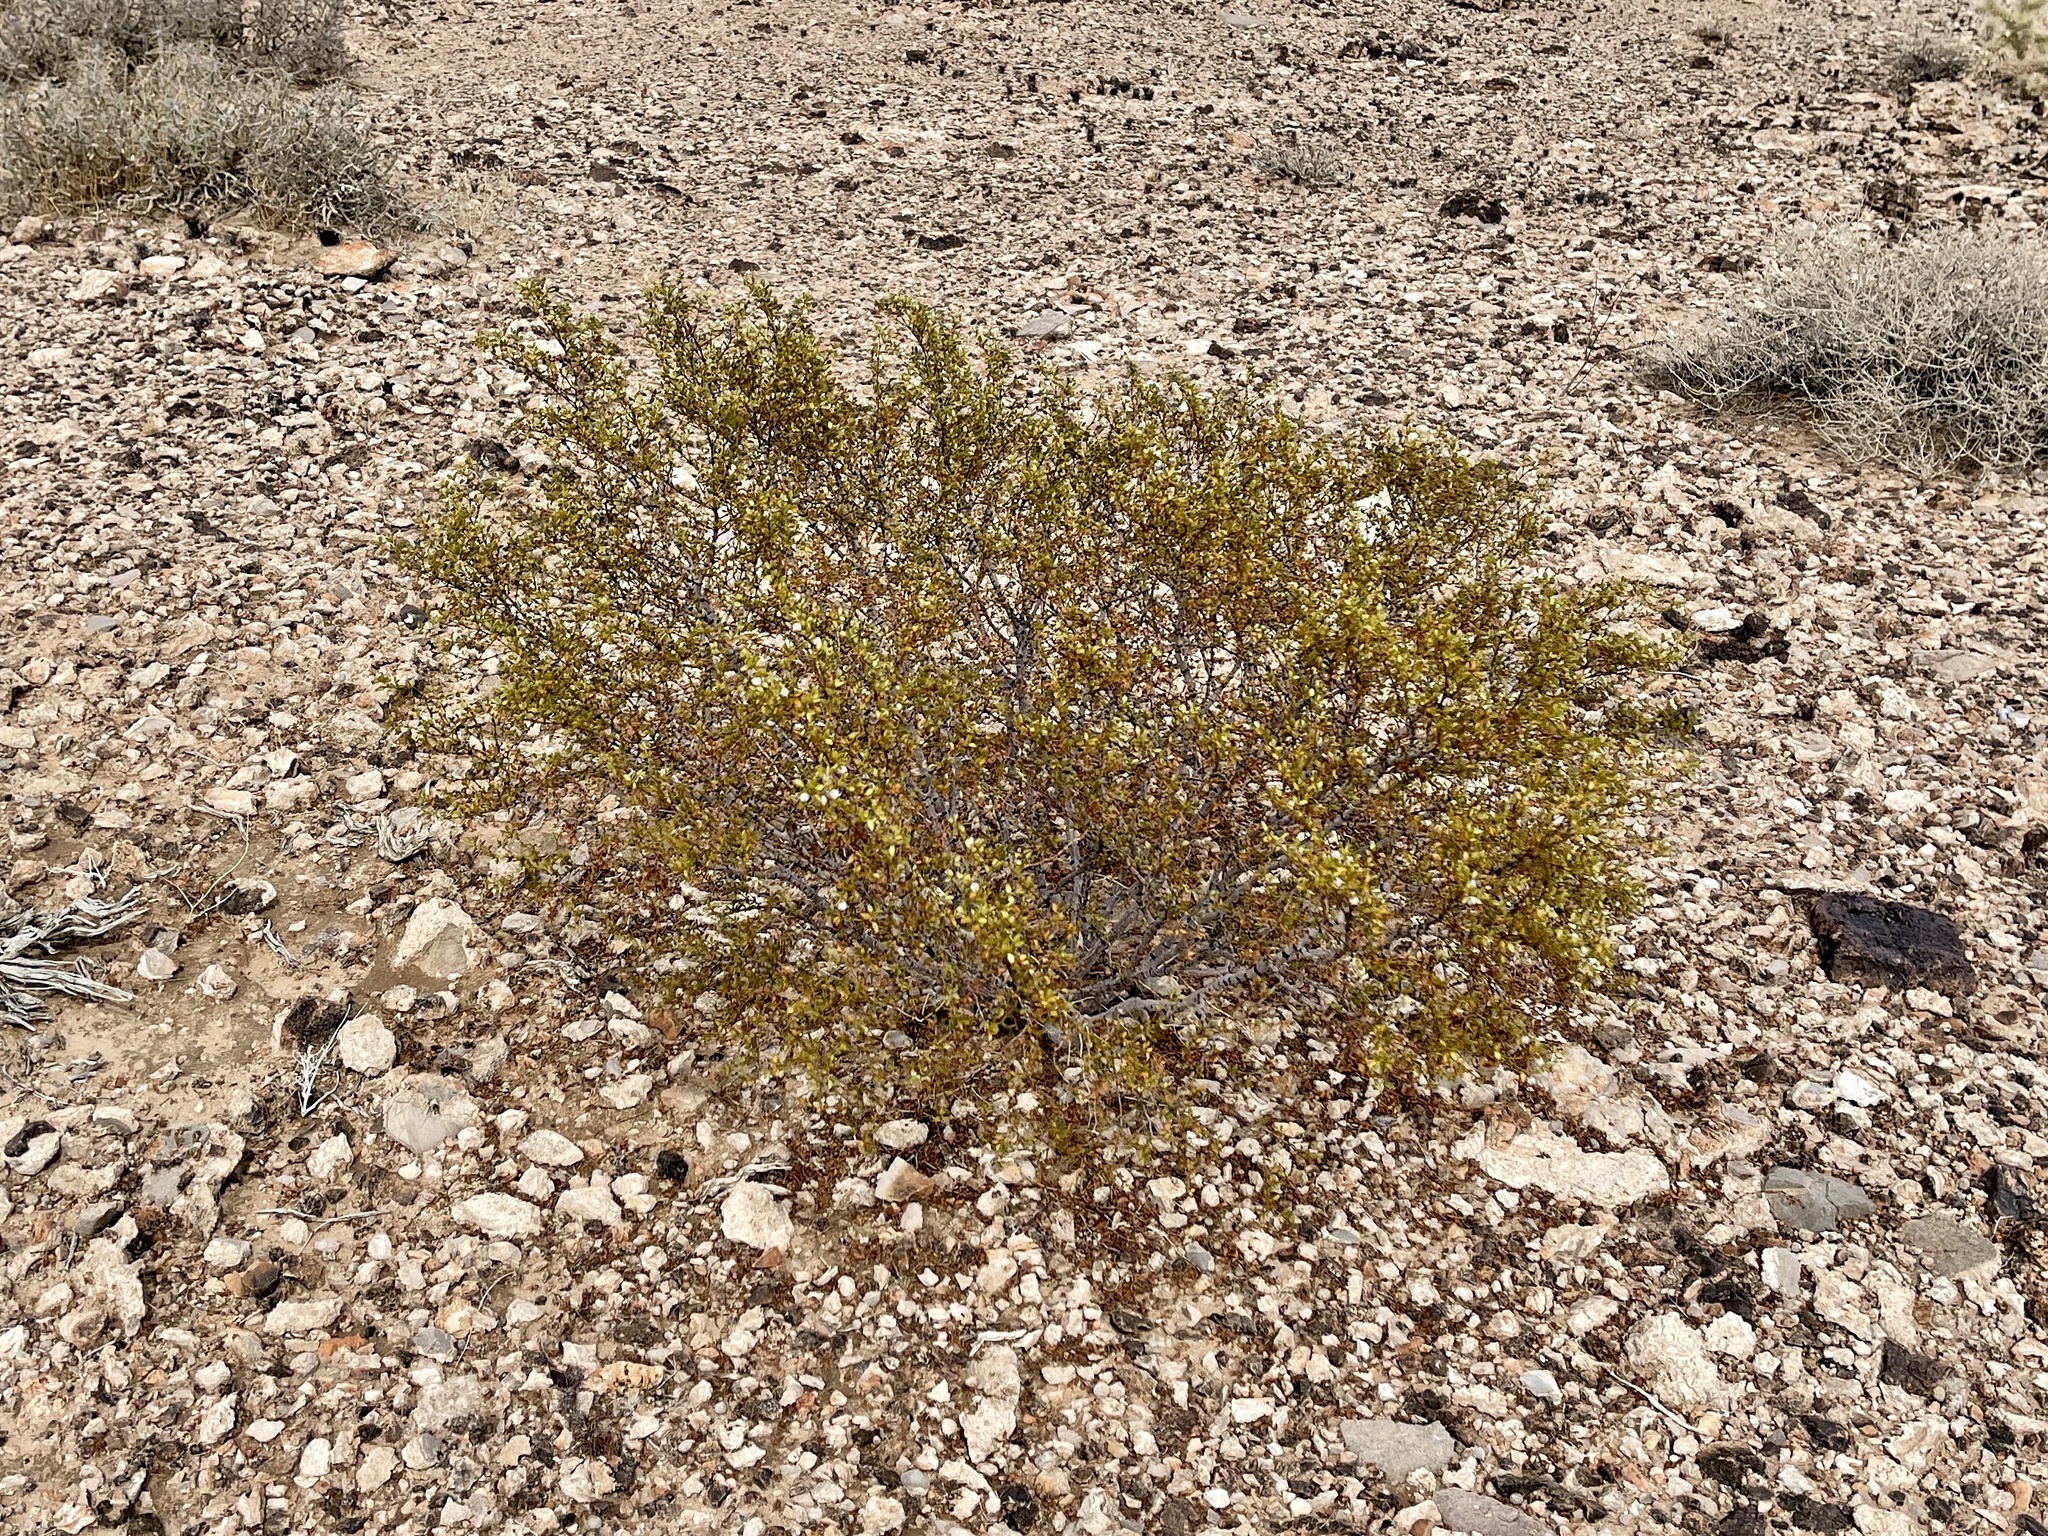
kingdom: Plantae
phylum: Tracheophyta
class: Magnoliopsida
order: Zygophyllales
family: Zygophyllaceae
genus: Larrea
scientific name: Larrea tridentata
